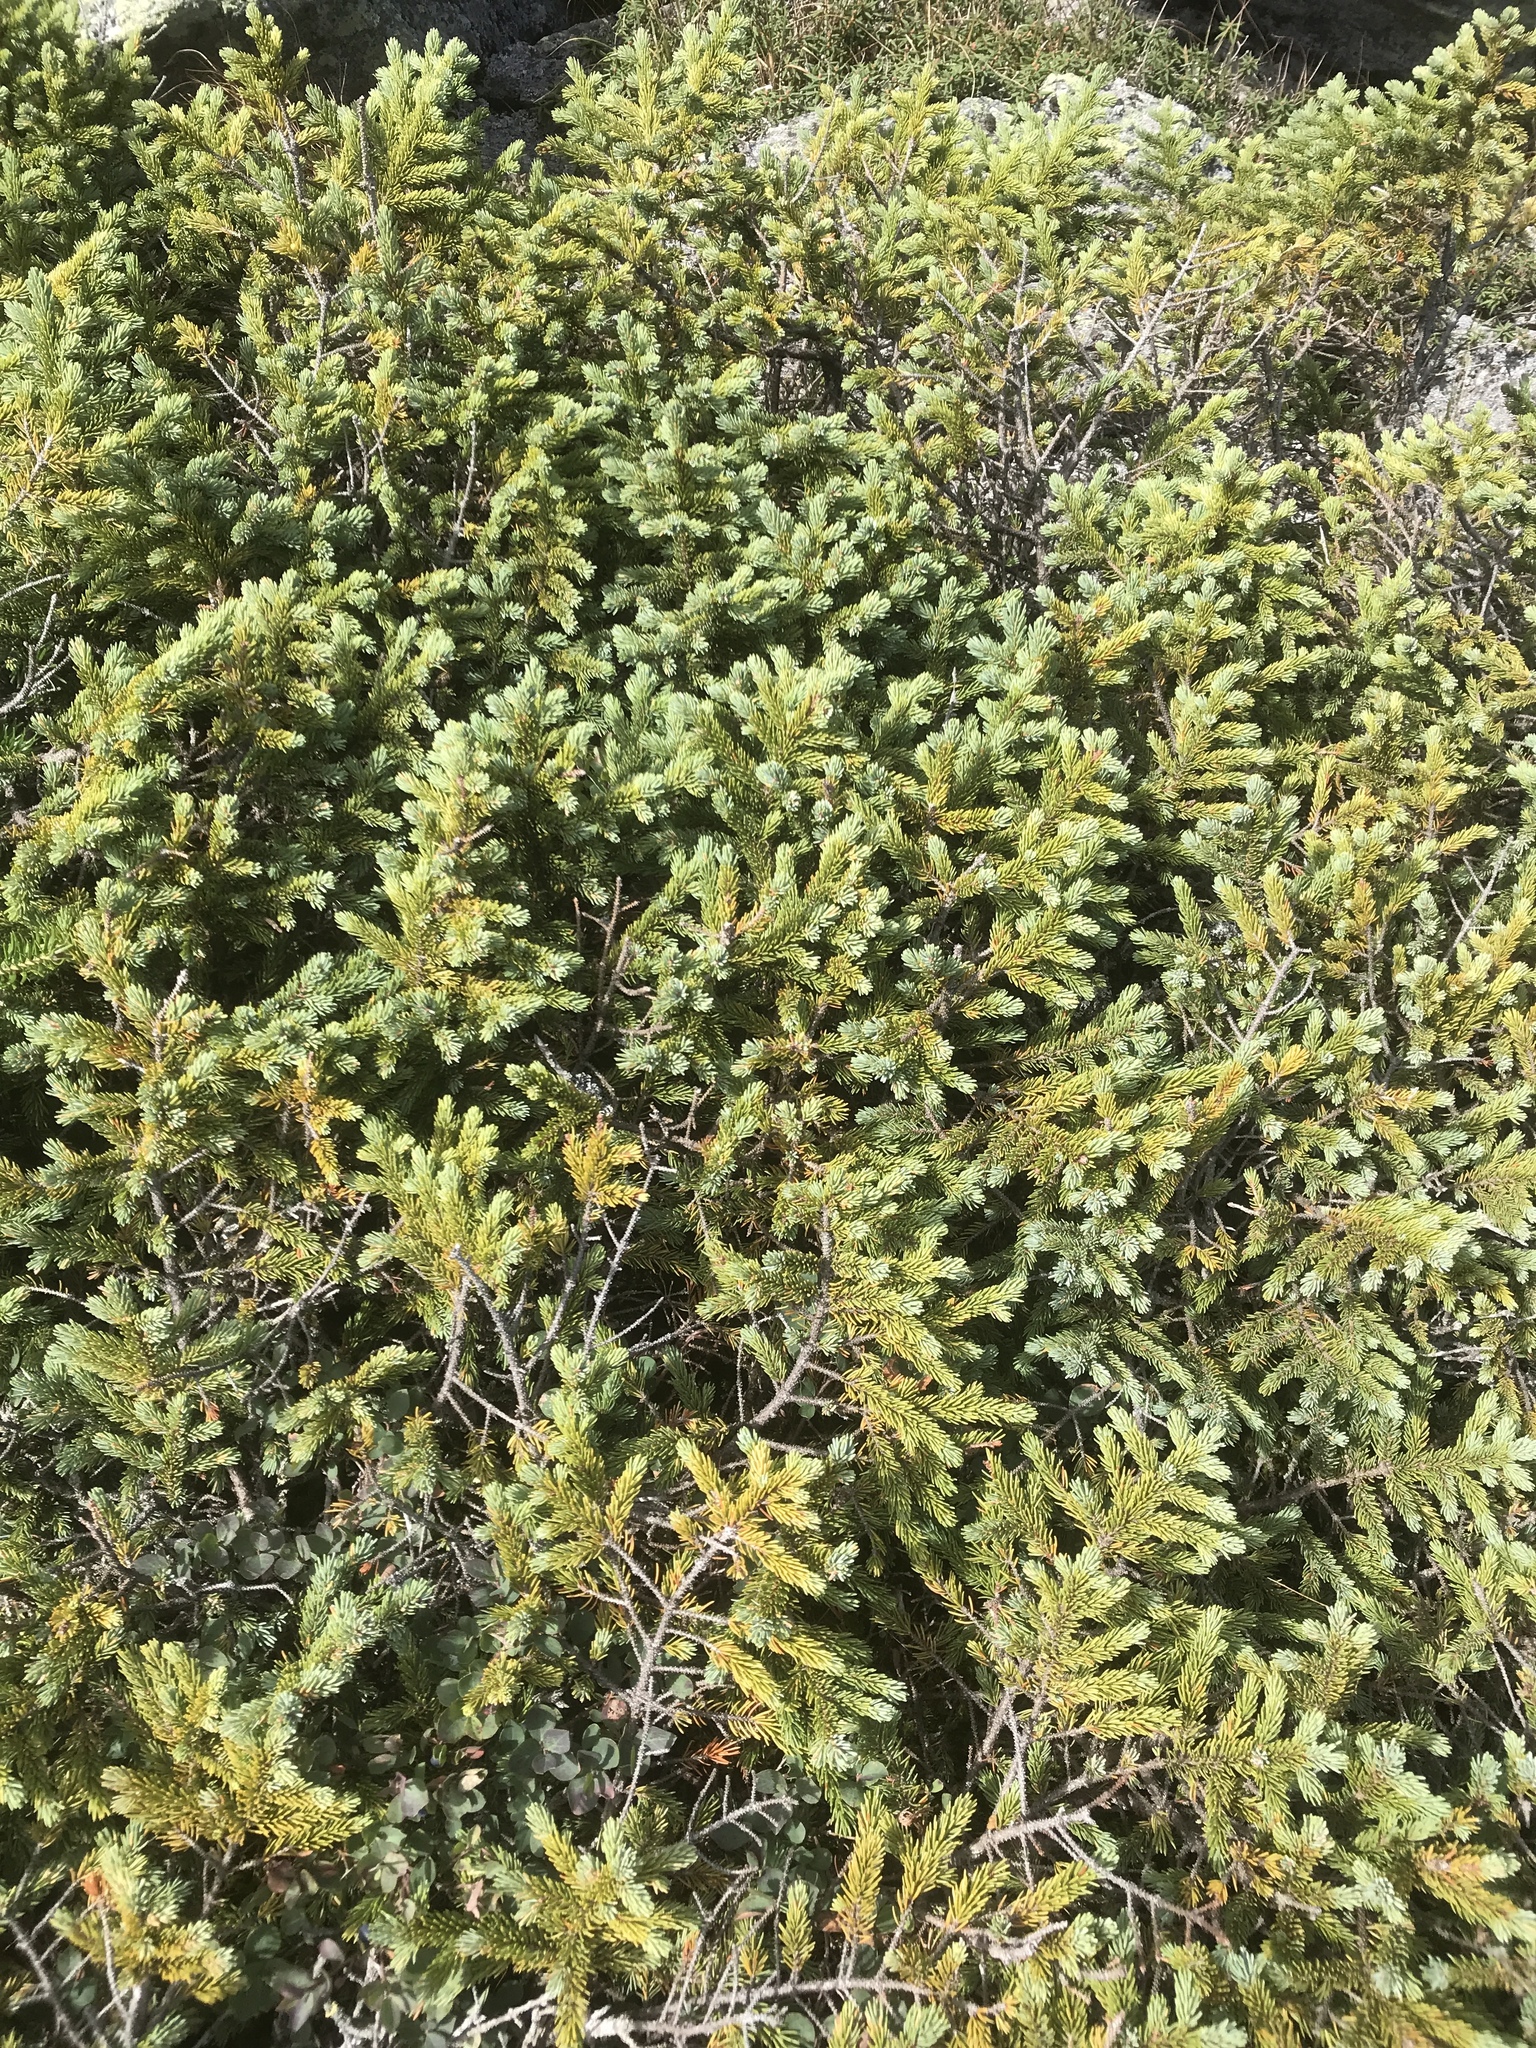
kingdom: Plantae
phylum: Tracheophyta
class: Pinopsida
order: Pinales
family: Pinaceae
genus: Picea
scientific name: Picea mariana
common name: Black spruce
